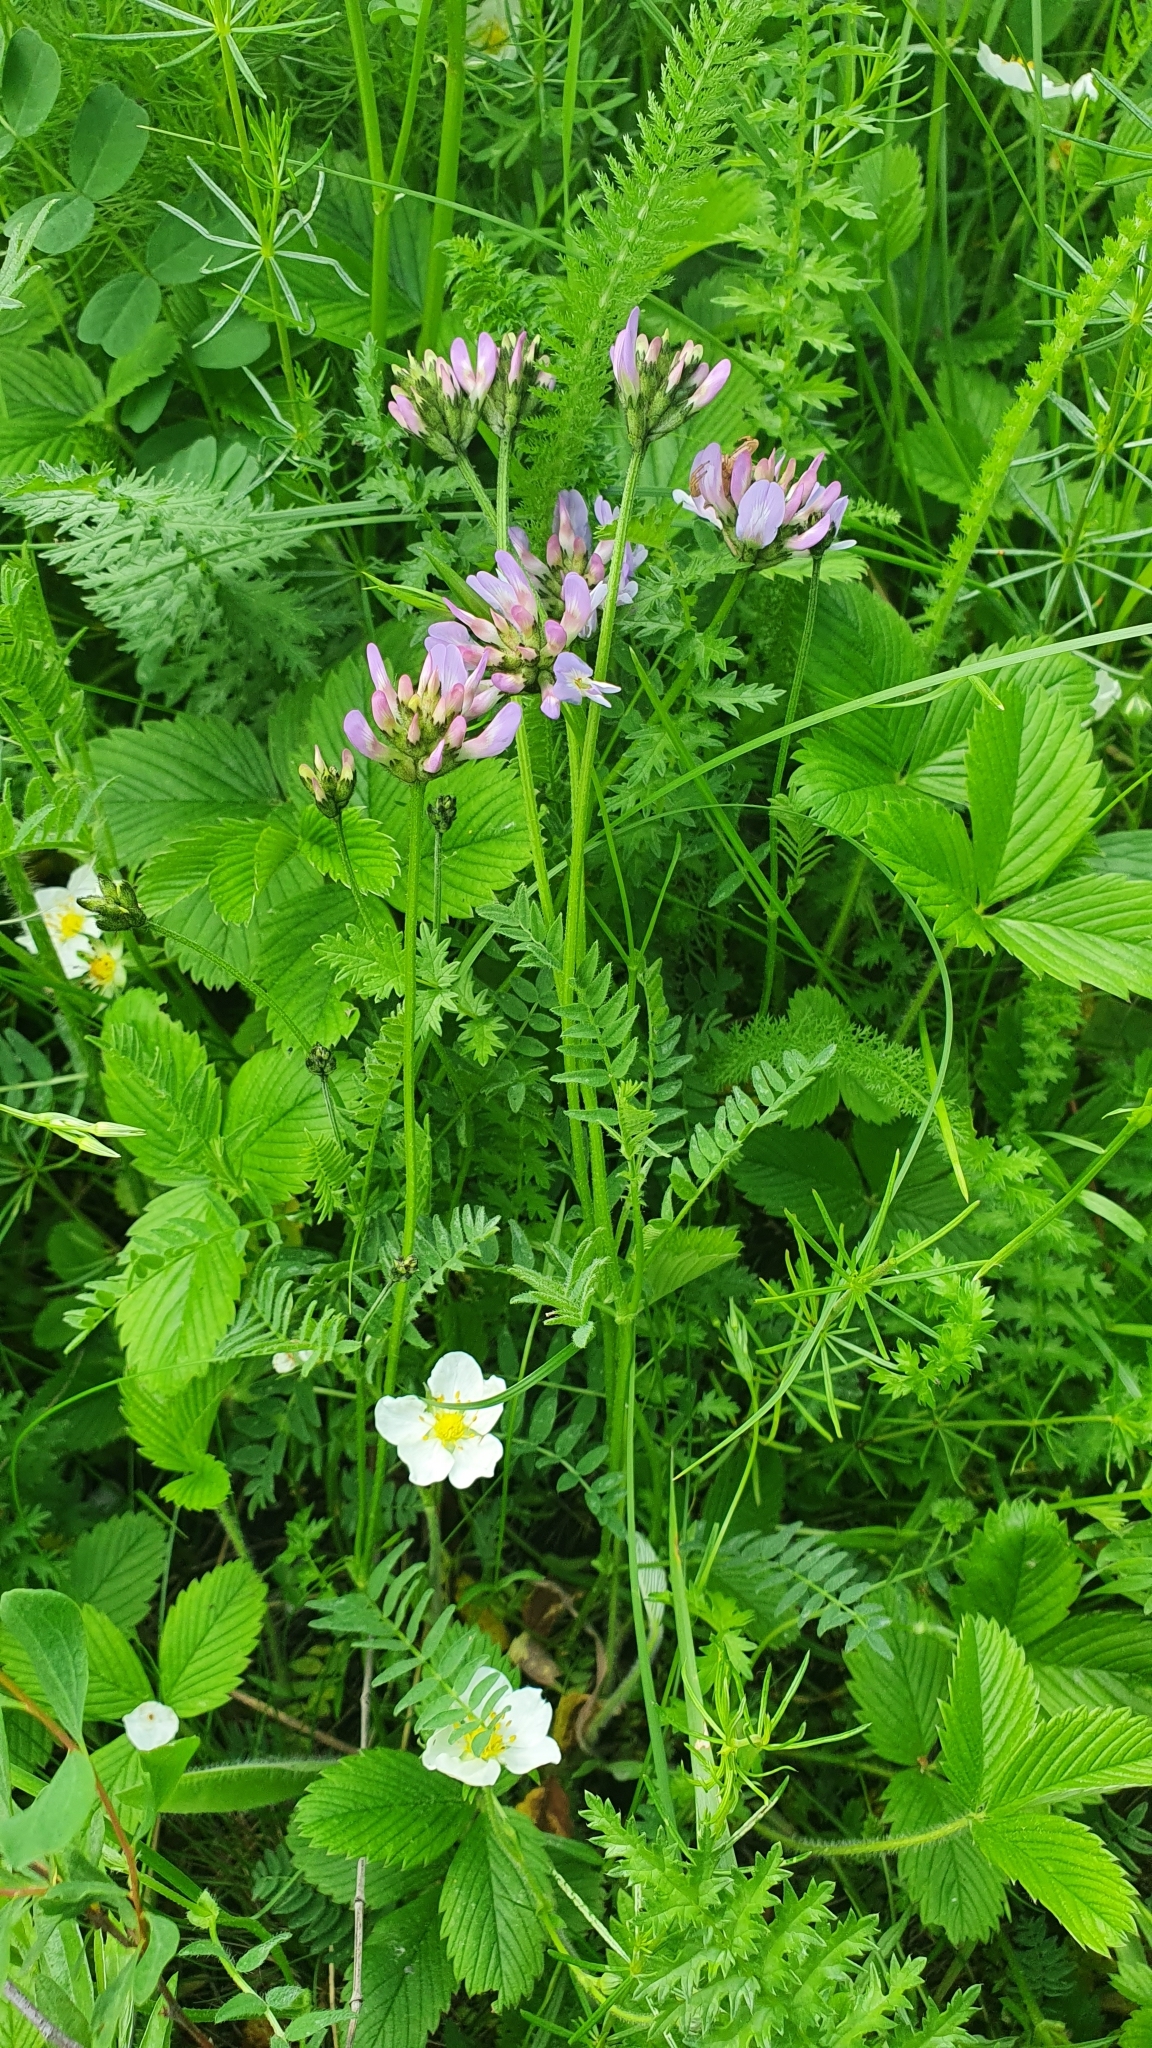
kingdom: Plantae
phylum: Tracheophyta
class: Magnoliopsida
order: Fabales
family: Fabaceae
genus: Astragalus
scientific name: Astragalus danicus
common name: Purple milk-vetch
